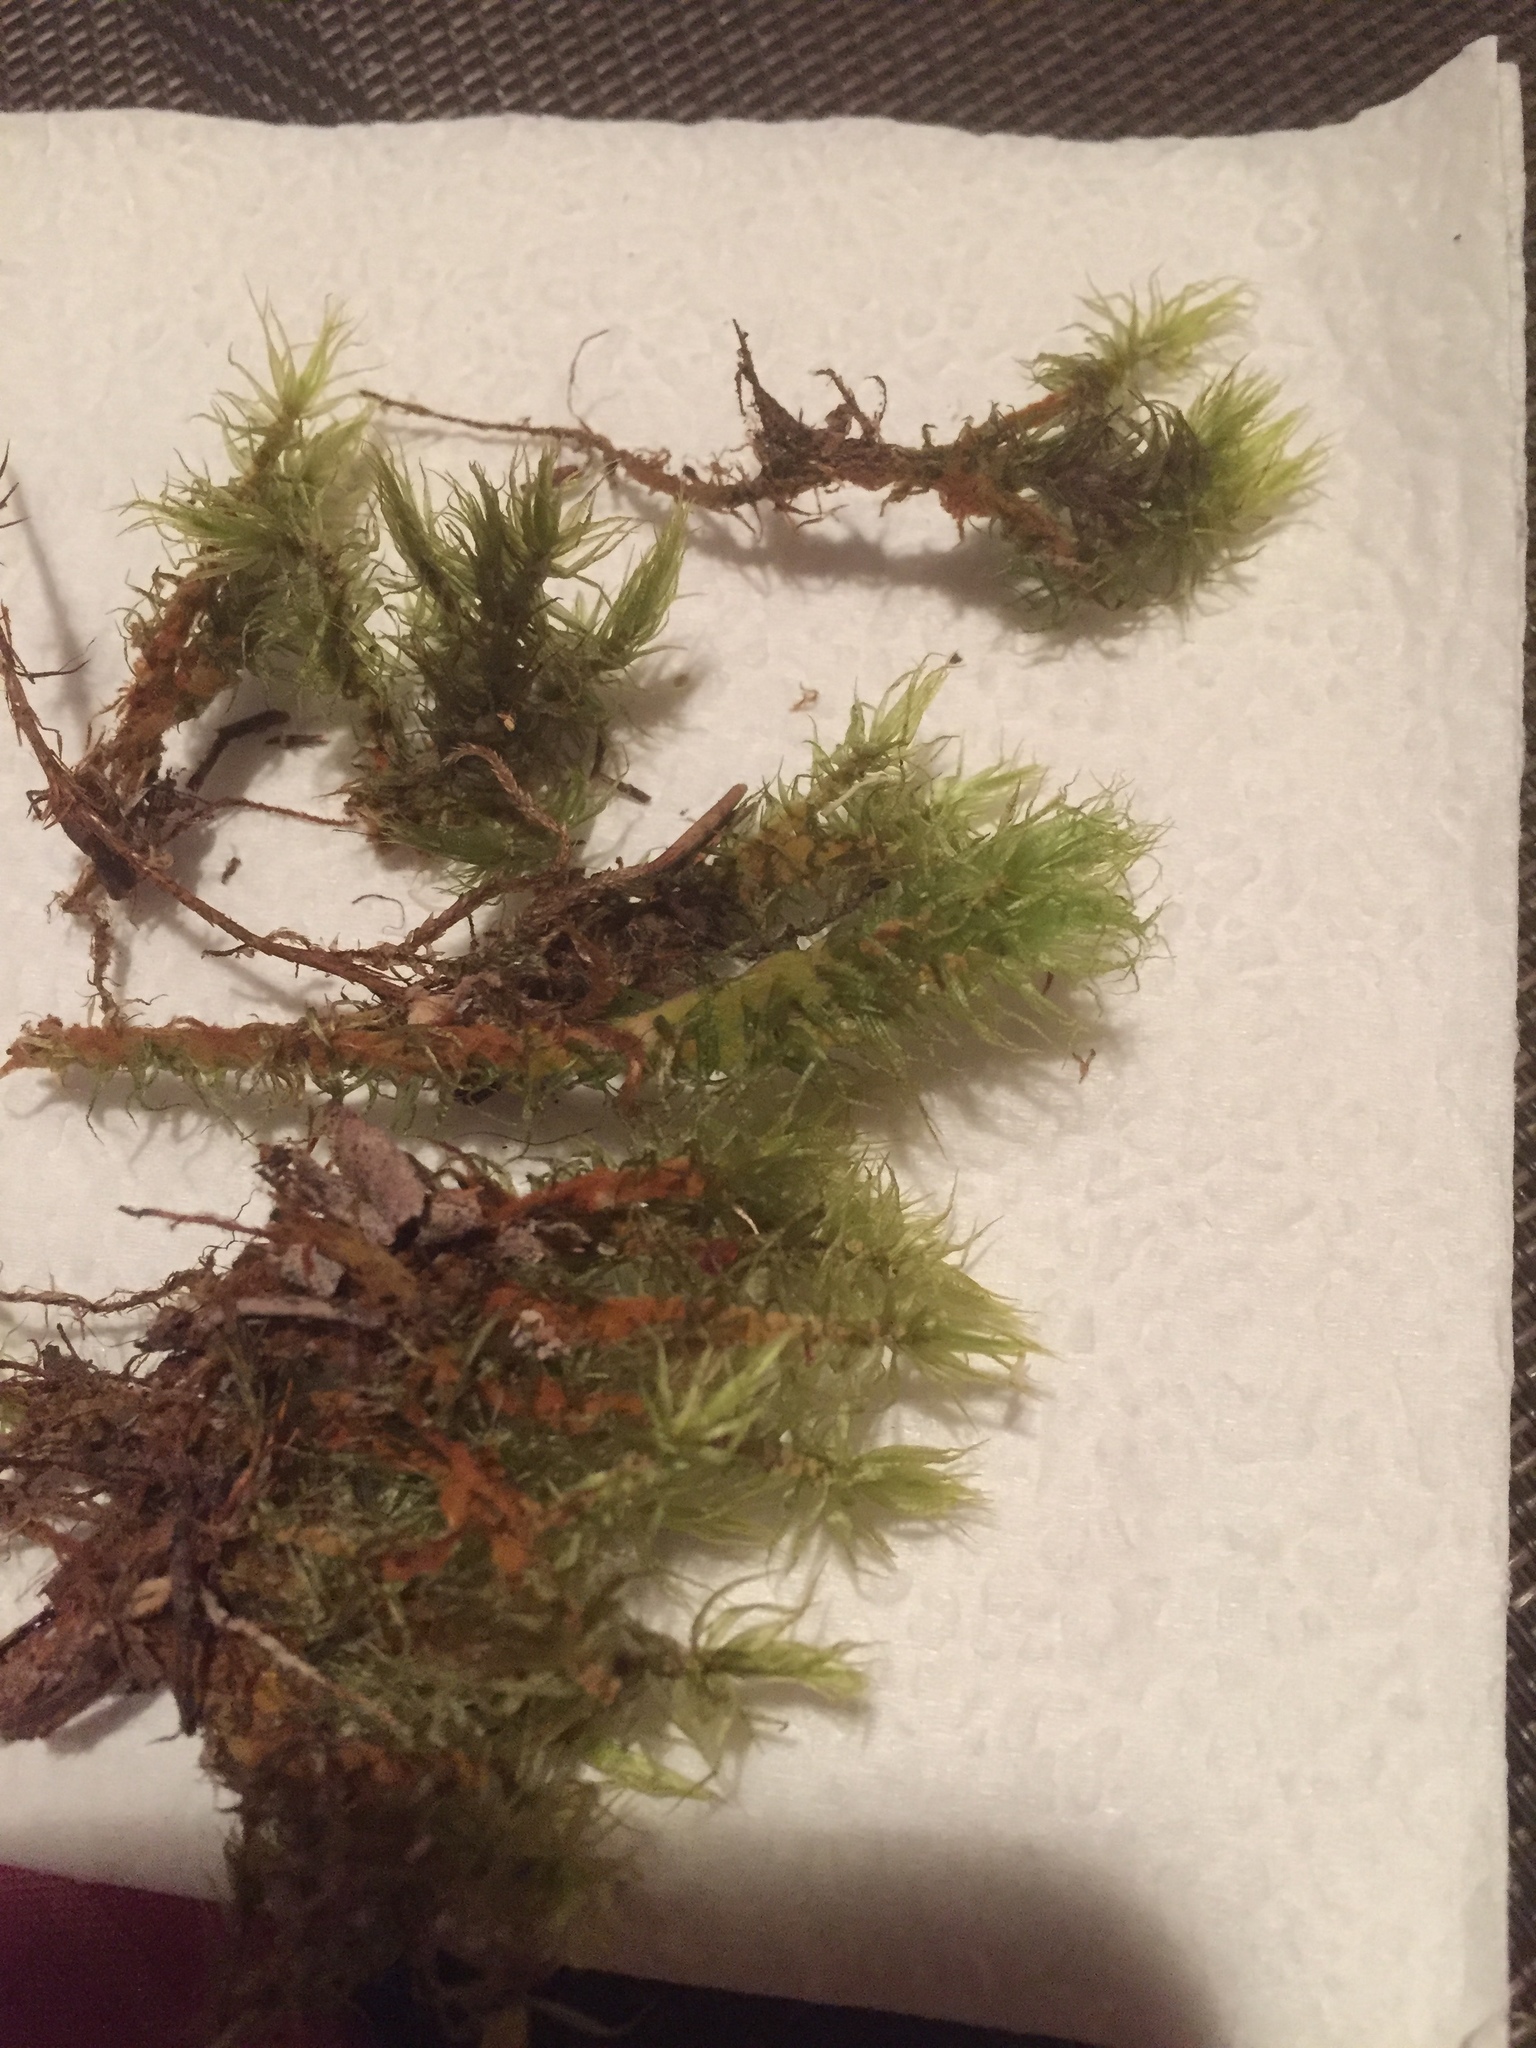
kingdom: Plantae
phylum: Bryophyta
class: Bryopsida
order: Dicranales
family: Dicranaceae
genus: Dicranum
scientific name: Dicranum polysetum
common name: Rugose fork-moss
